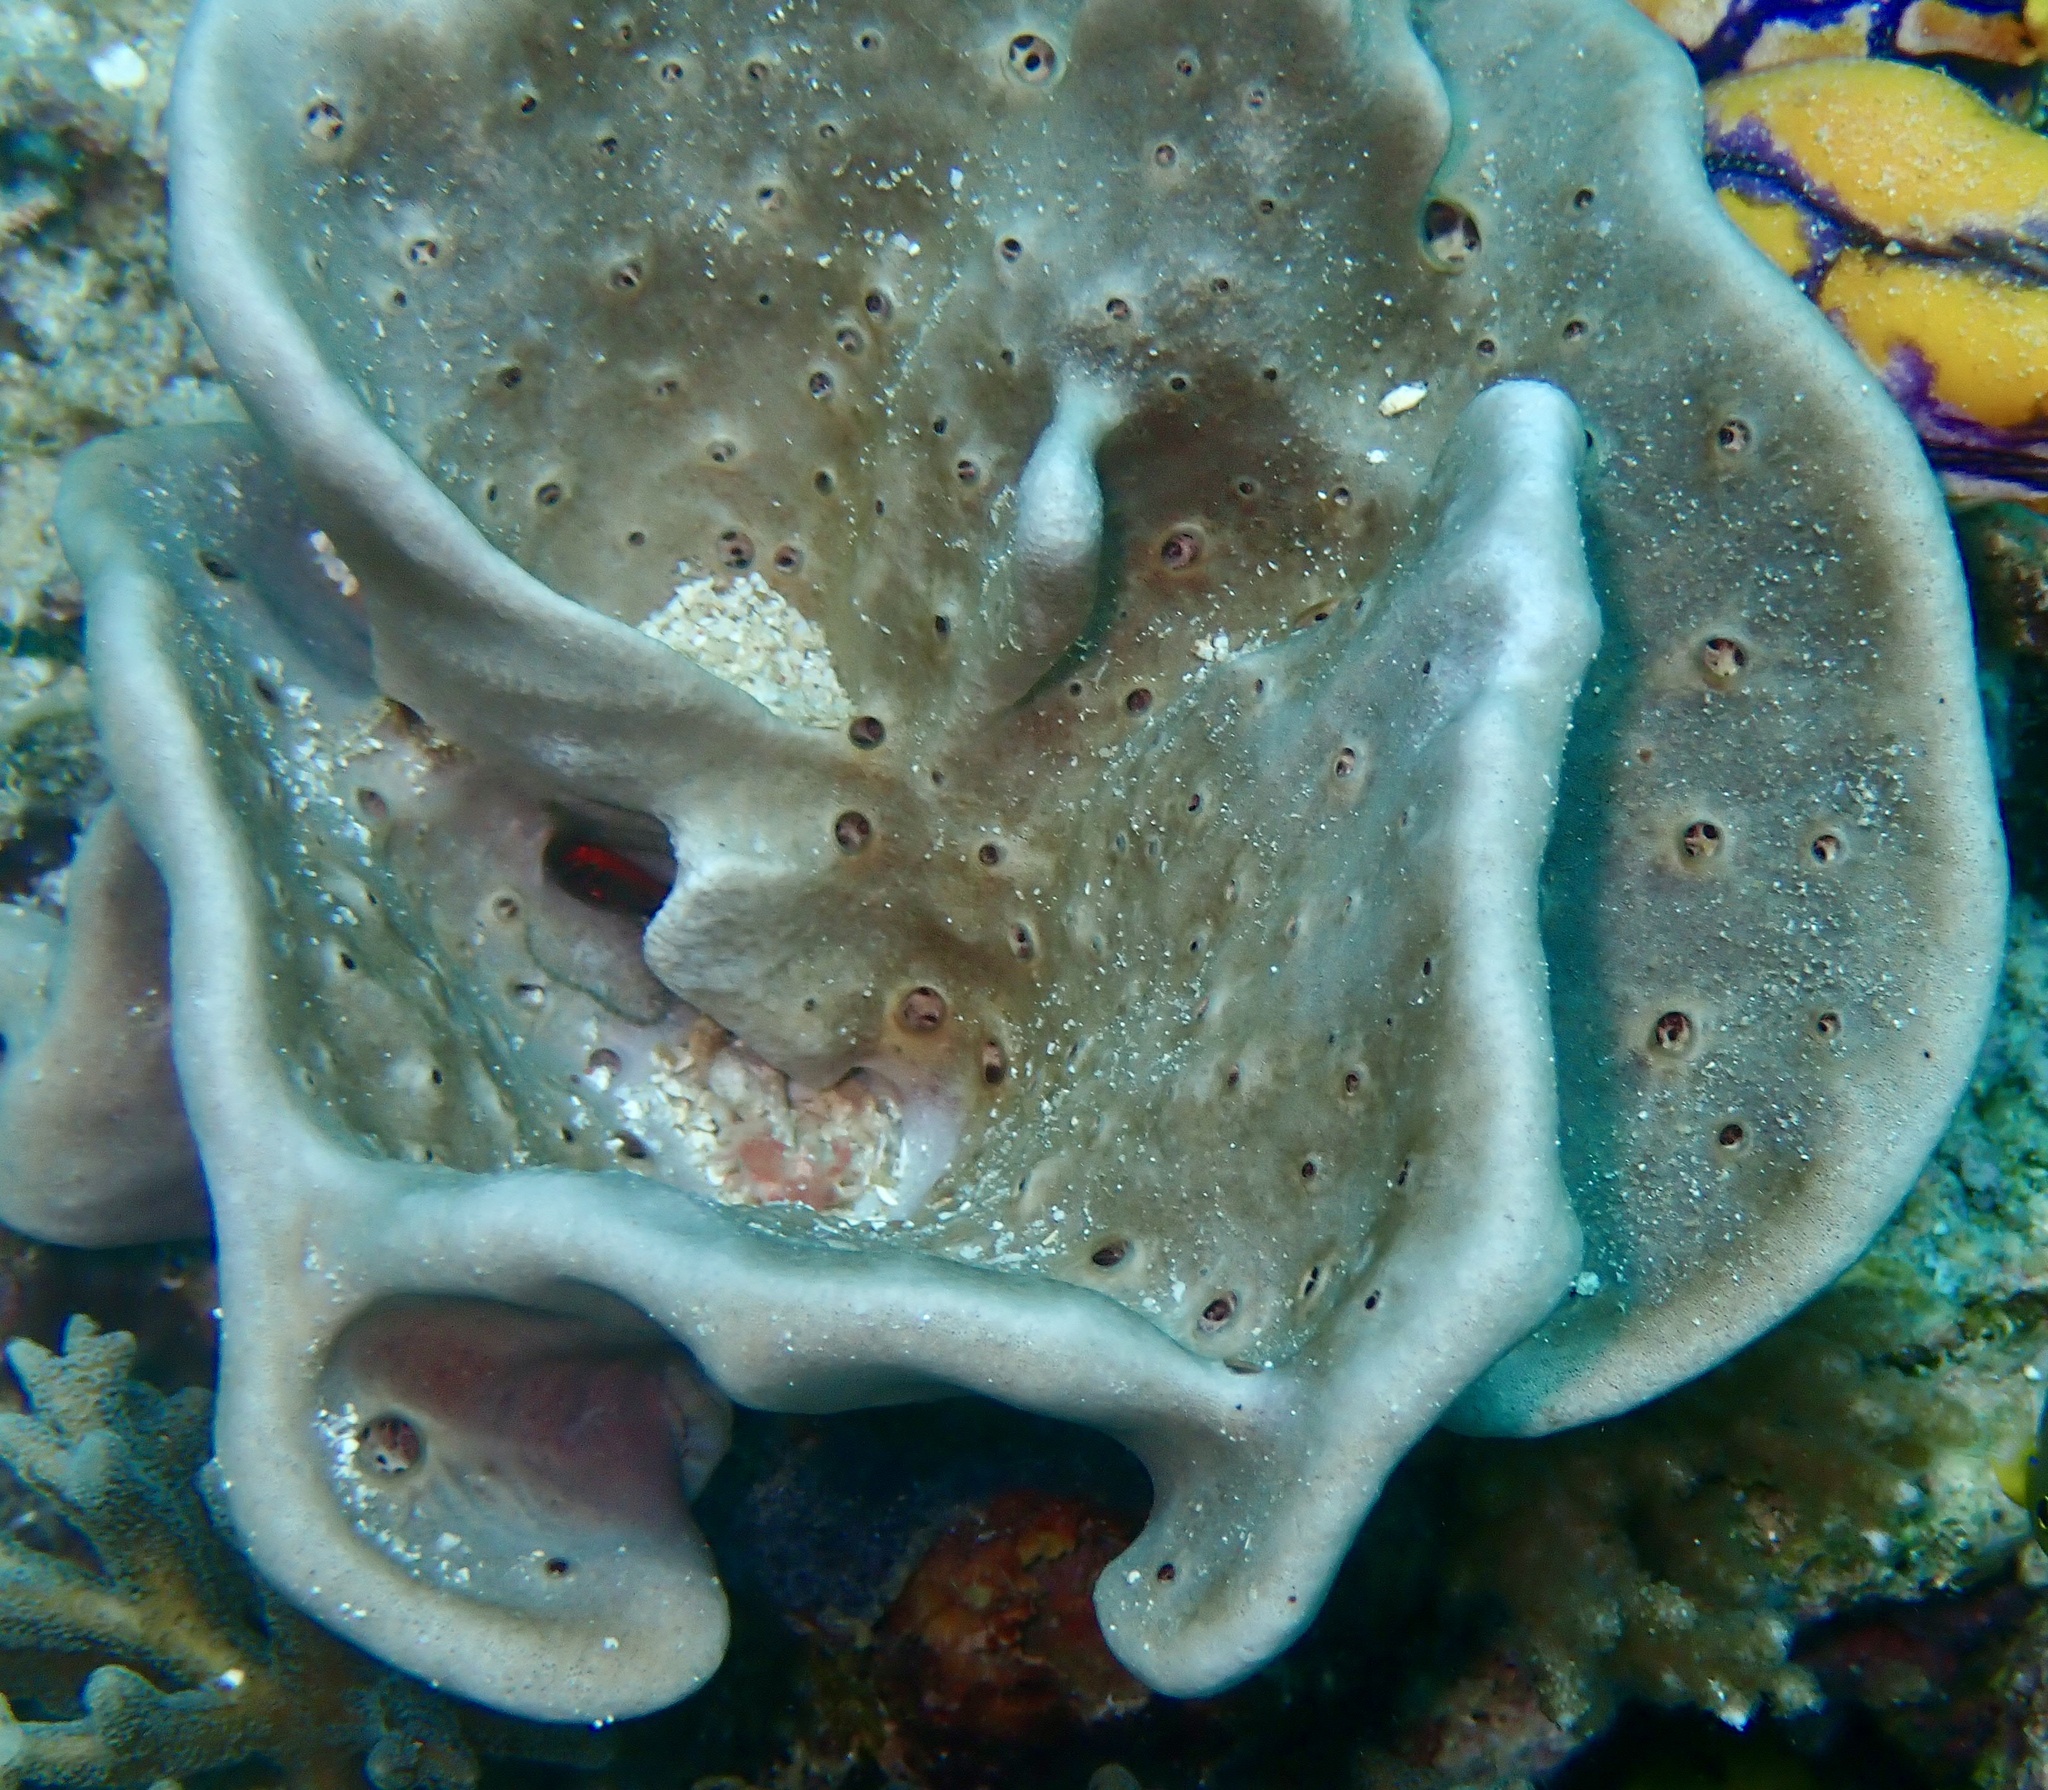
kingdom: Animalia
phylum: Porifera
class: Demospongiae
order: Dictyoceratida
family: Spongiidae
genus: Spongia
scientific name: Spongia agaricina
